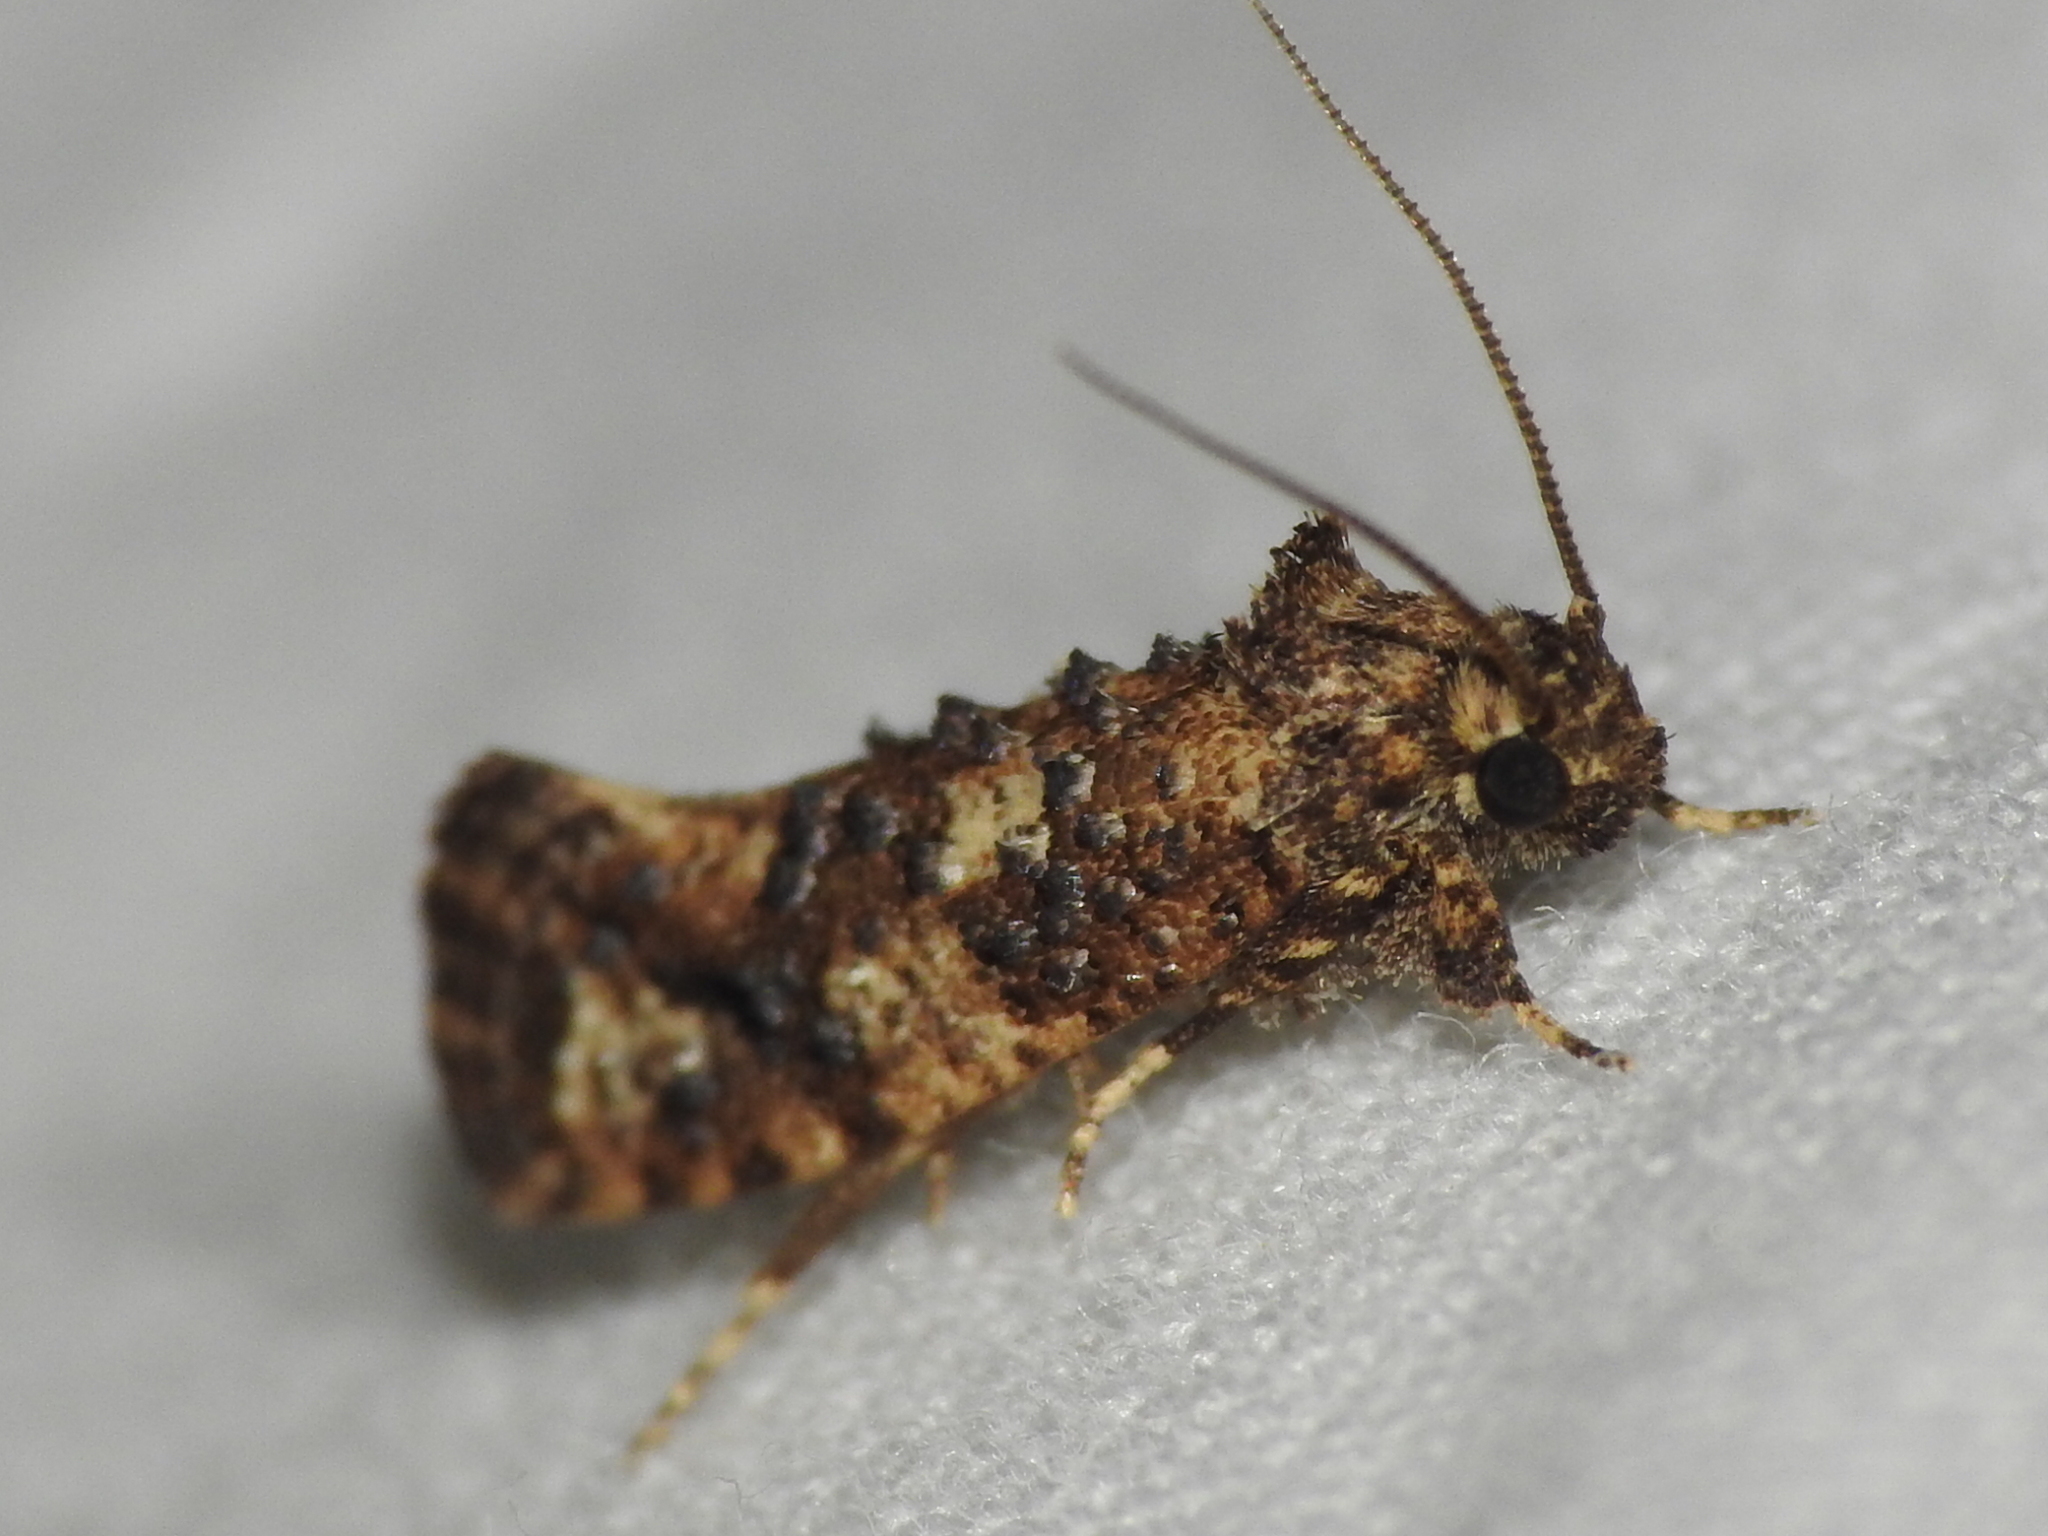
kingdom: Animalia
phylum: Arthropoda
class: Insecta
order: Lepidoptera
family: Tineidae
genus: Acrolophus
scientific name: Acrolophus cressoni
